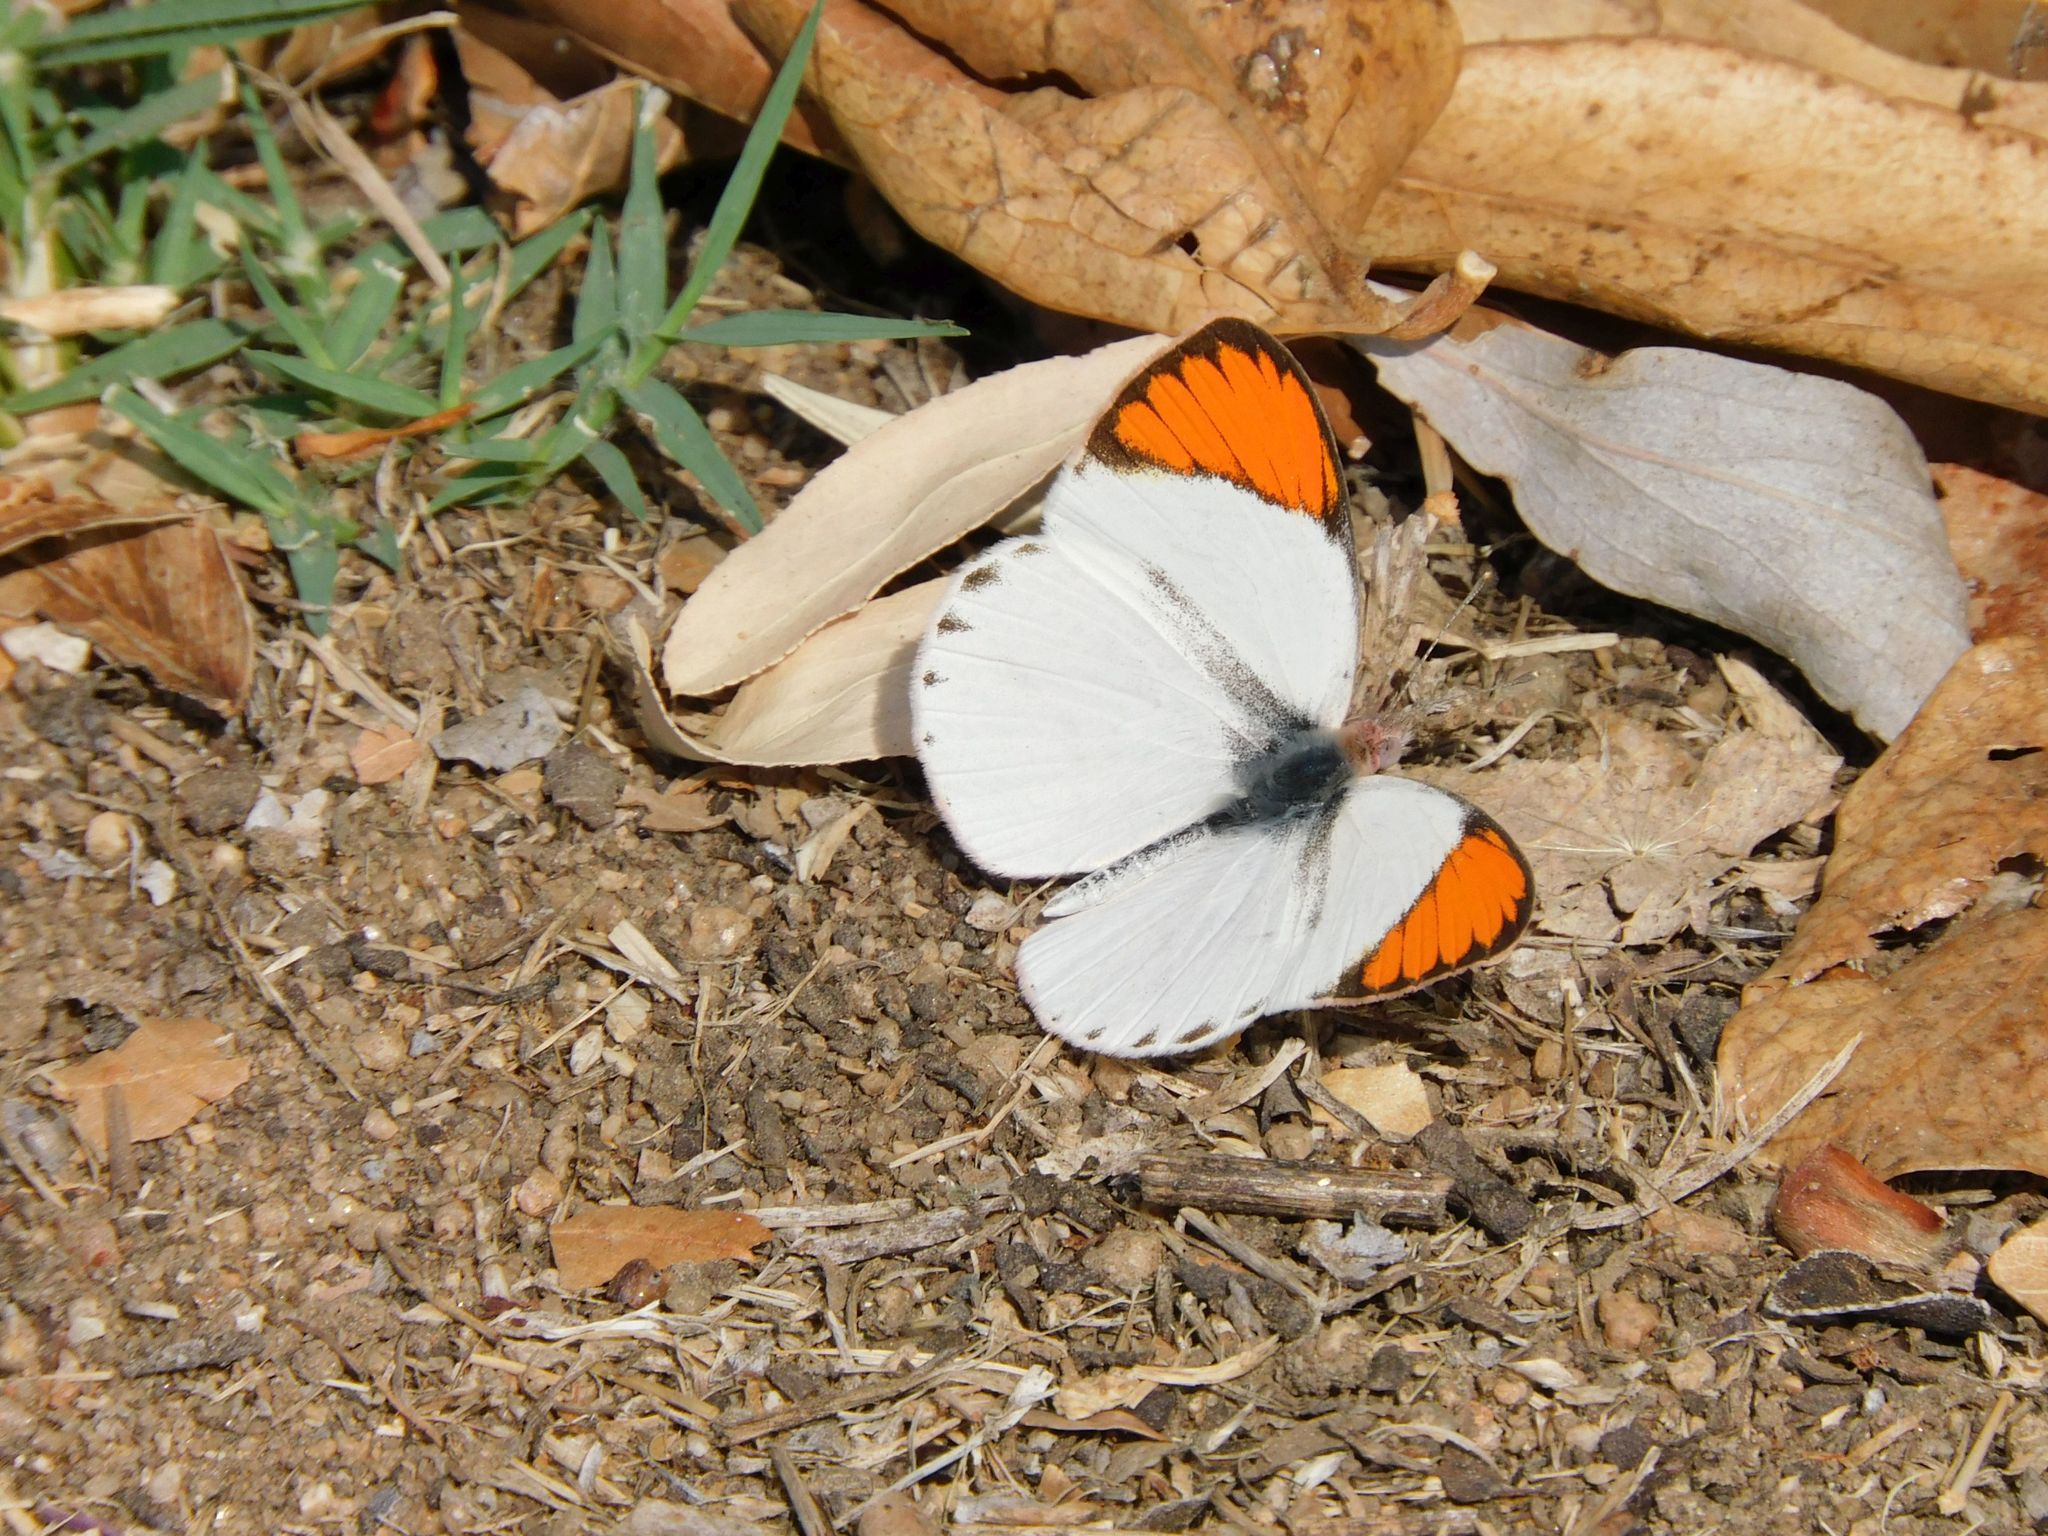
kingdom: Animalia
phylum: Arthropoda
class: Insecta
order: Lepidoptera
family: Pieridae
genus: Colotis
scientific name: Colotis evenina
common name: Common orange tip
